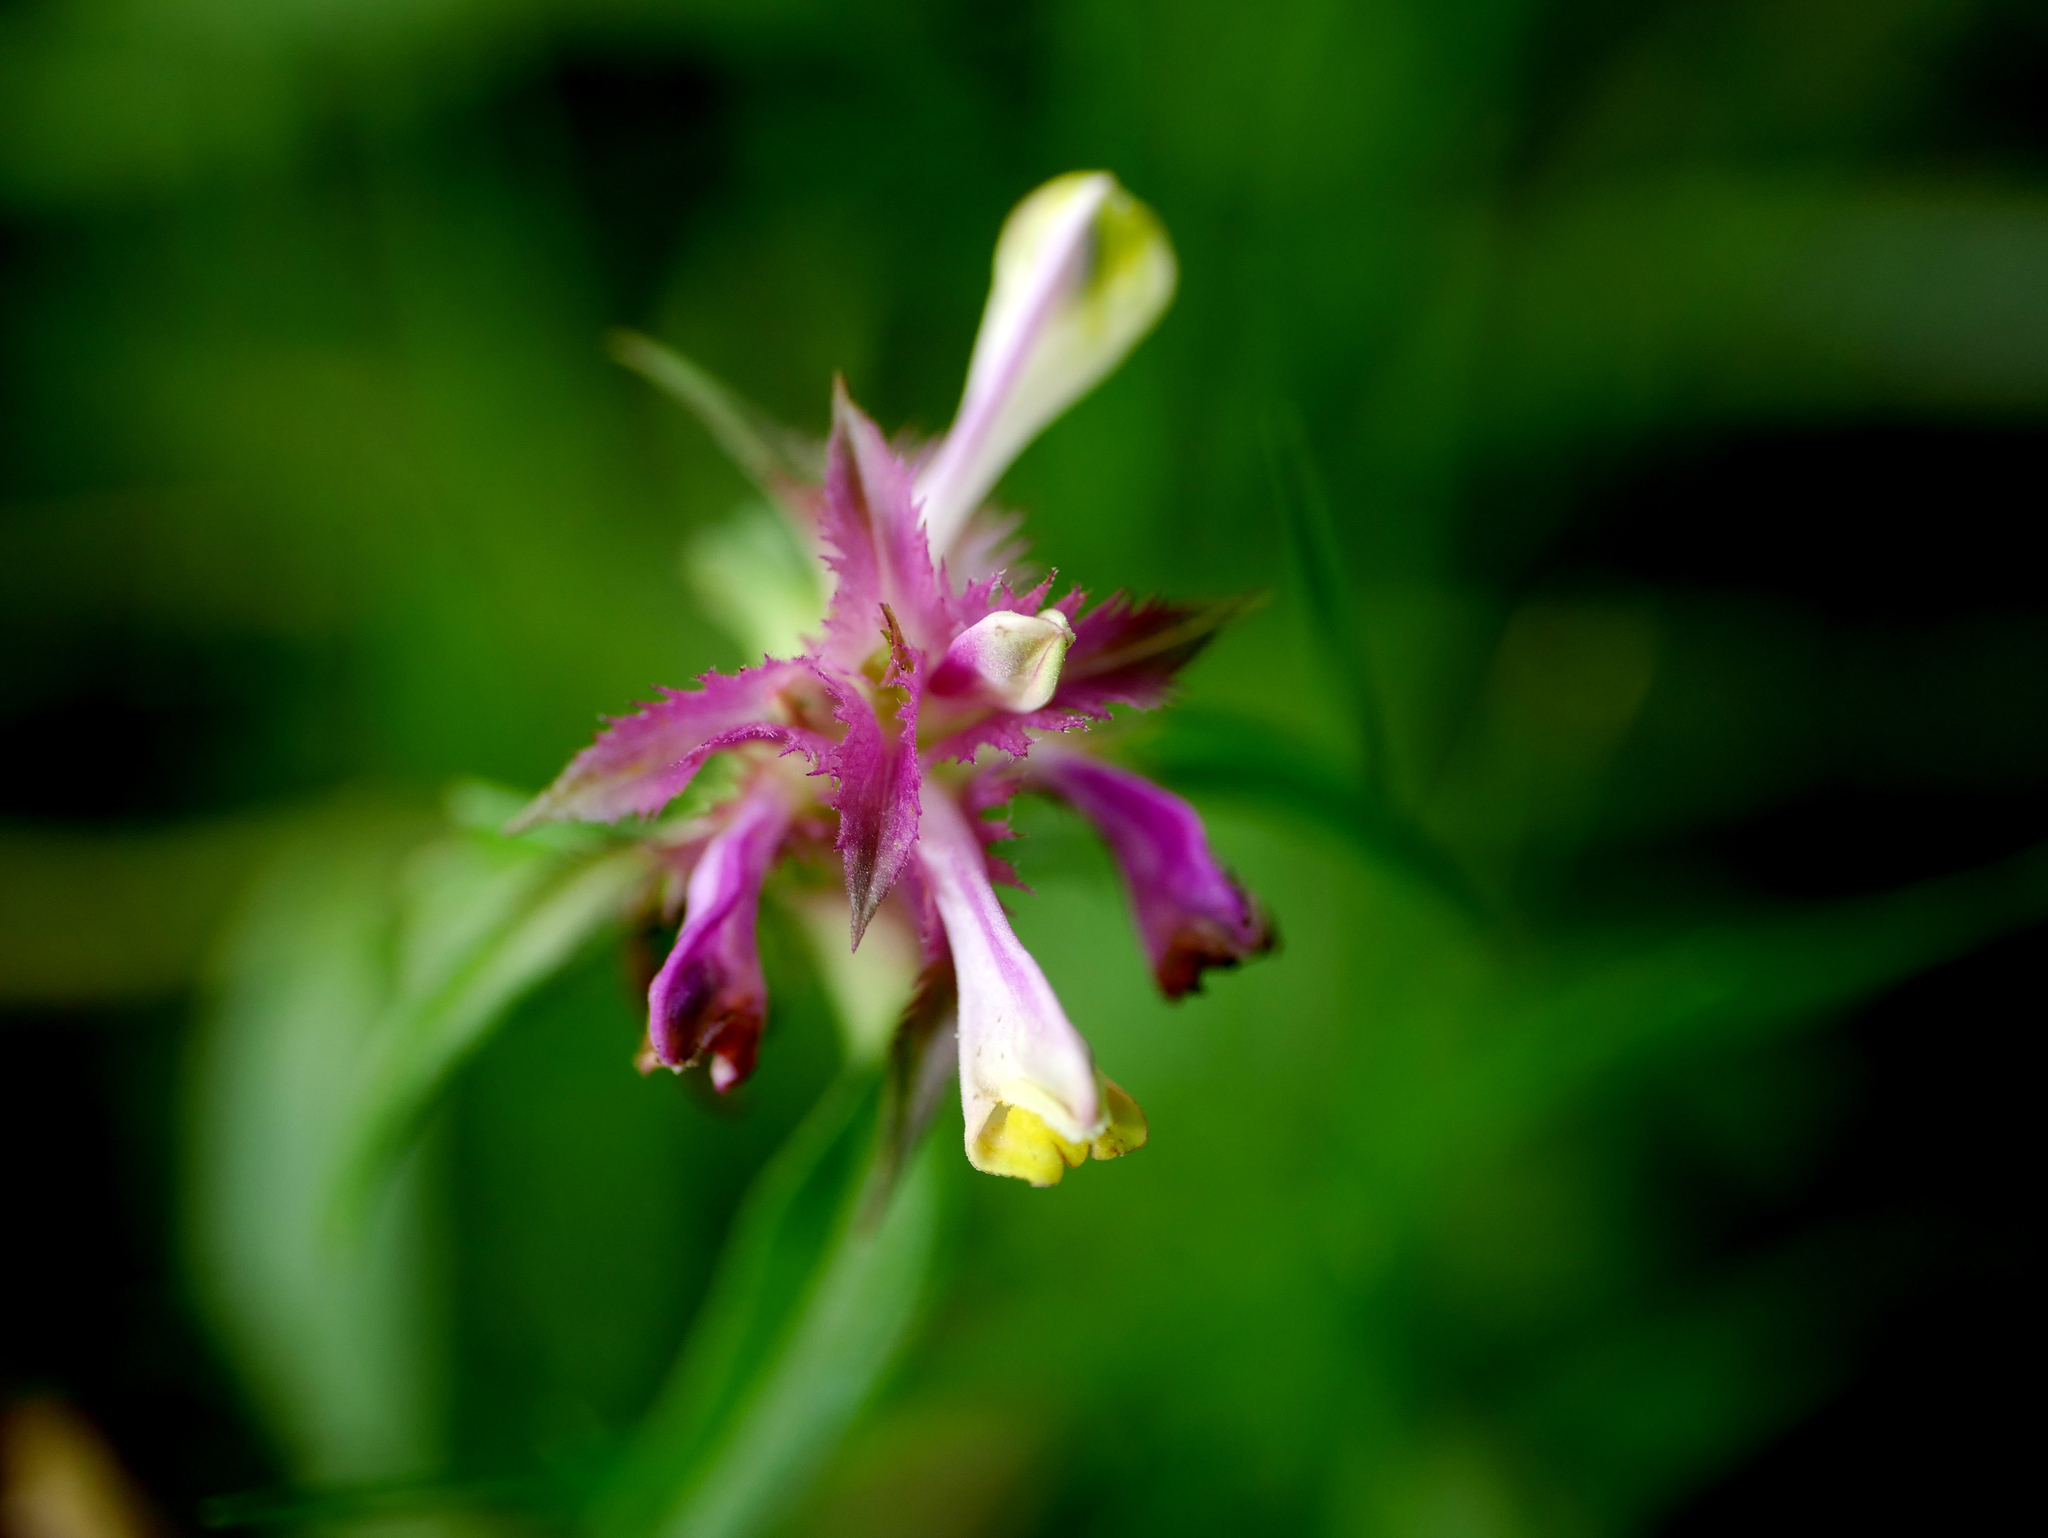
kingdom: Plantae
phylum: Tracheophyta
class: Magnoliopsida
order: Lamiales
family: Orobanchaceae
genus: Melampyrum
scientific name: Melampyrum cristatum
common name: Crested cow-wheat
